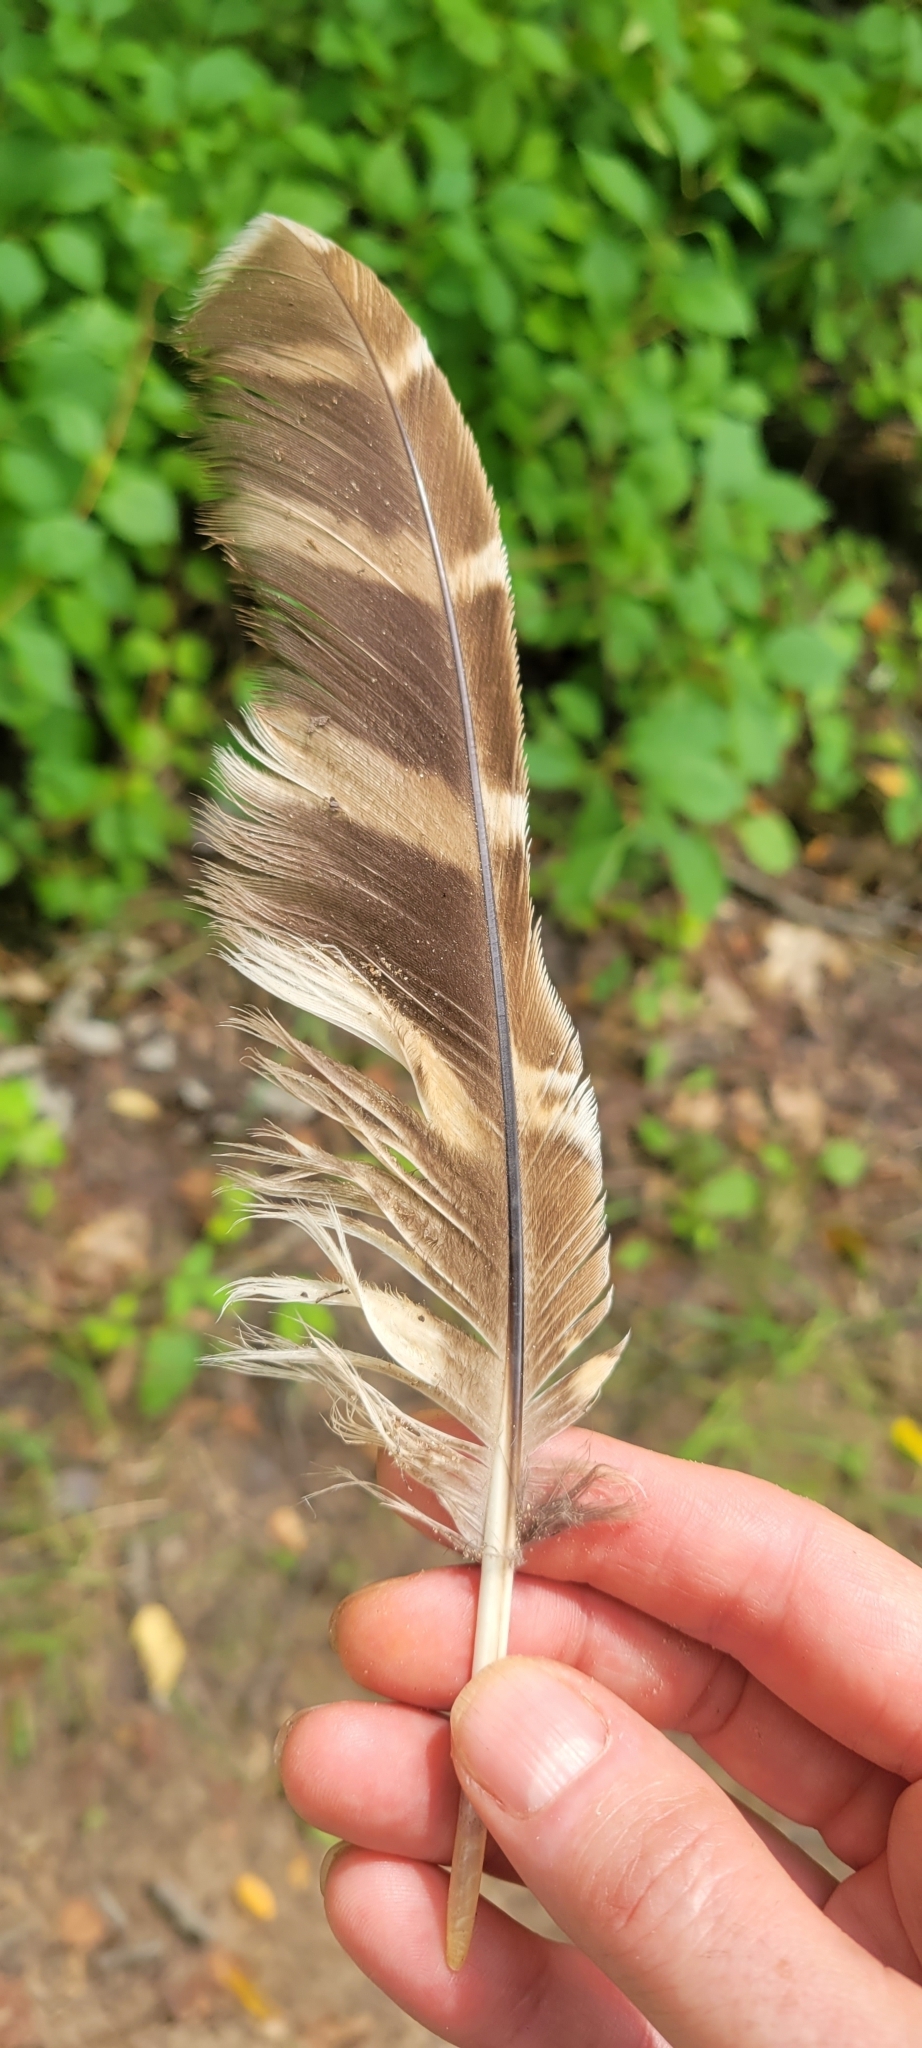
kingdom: Animalia
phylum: Chordata
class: Aves
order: Strigiformes
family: Strigidae
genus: Strix
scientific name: Strix varia
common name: Barred owl
